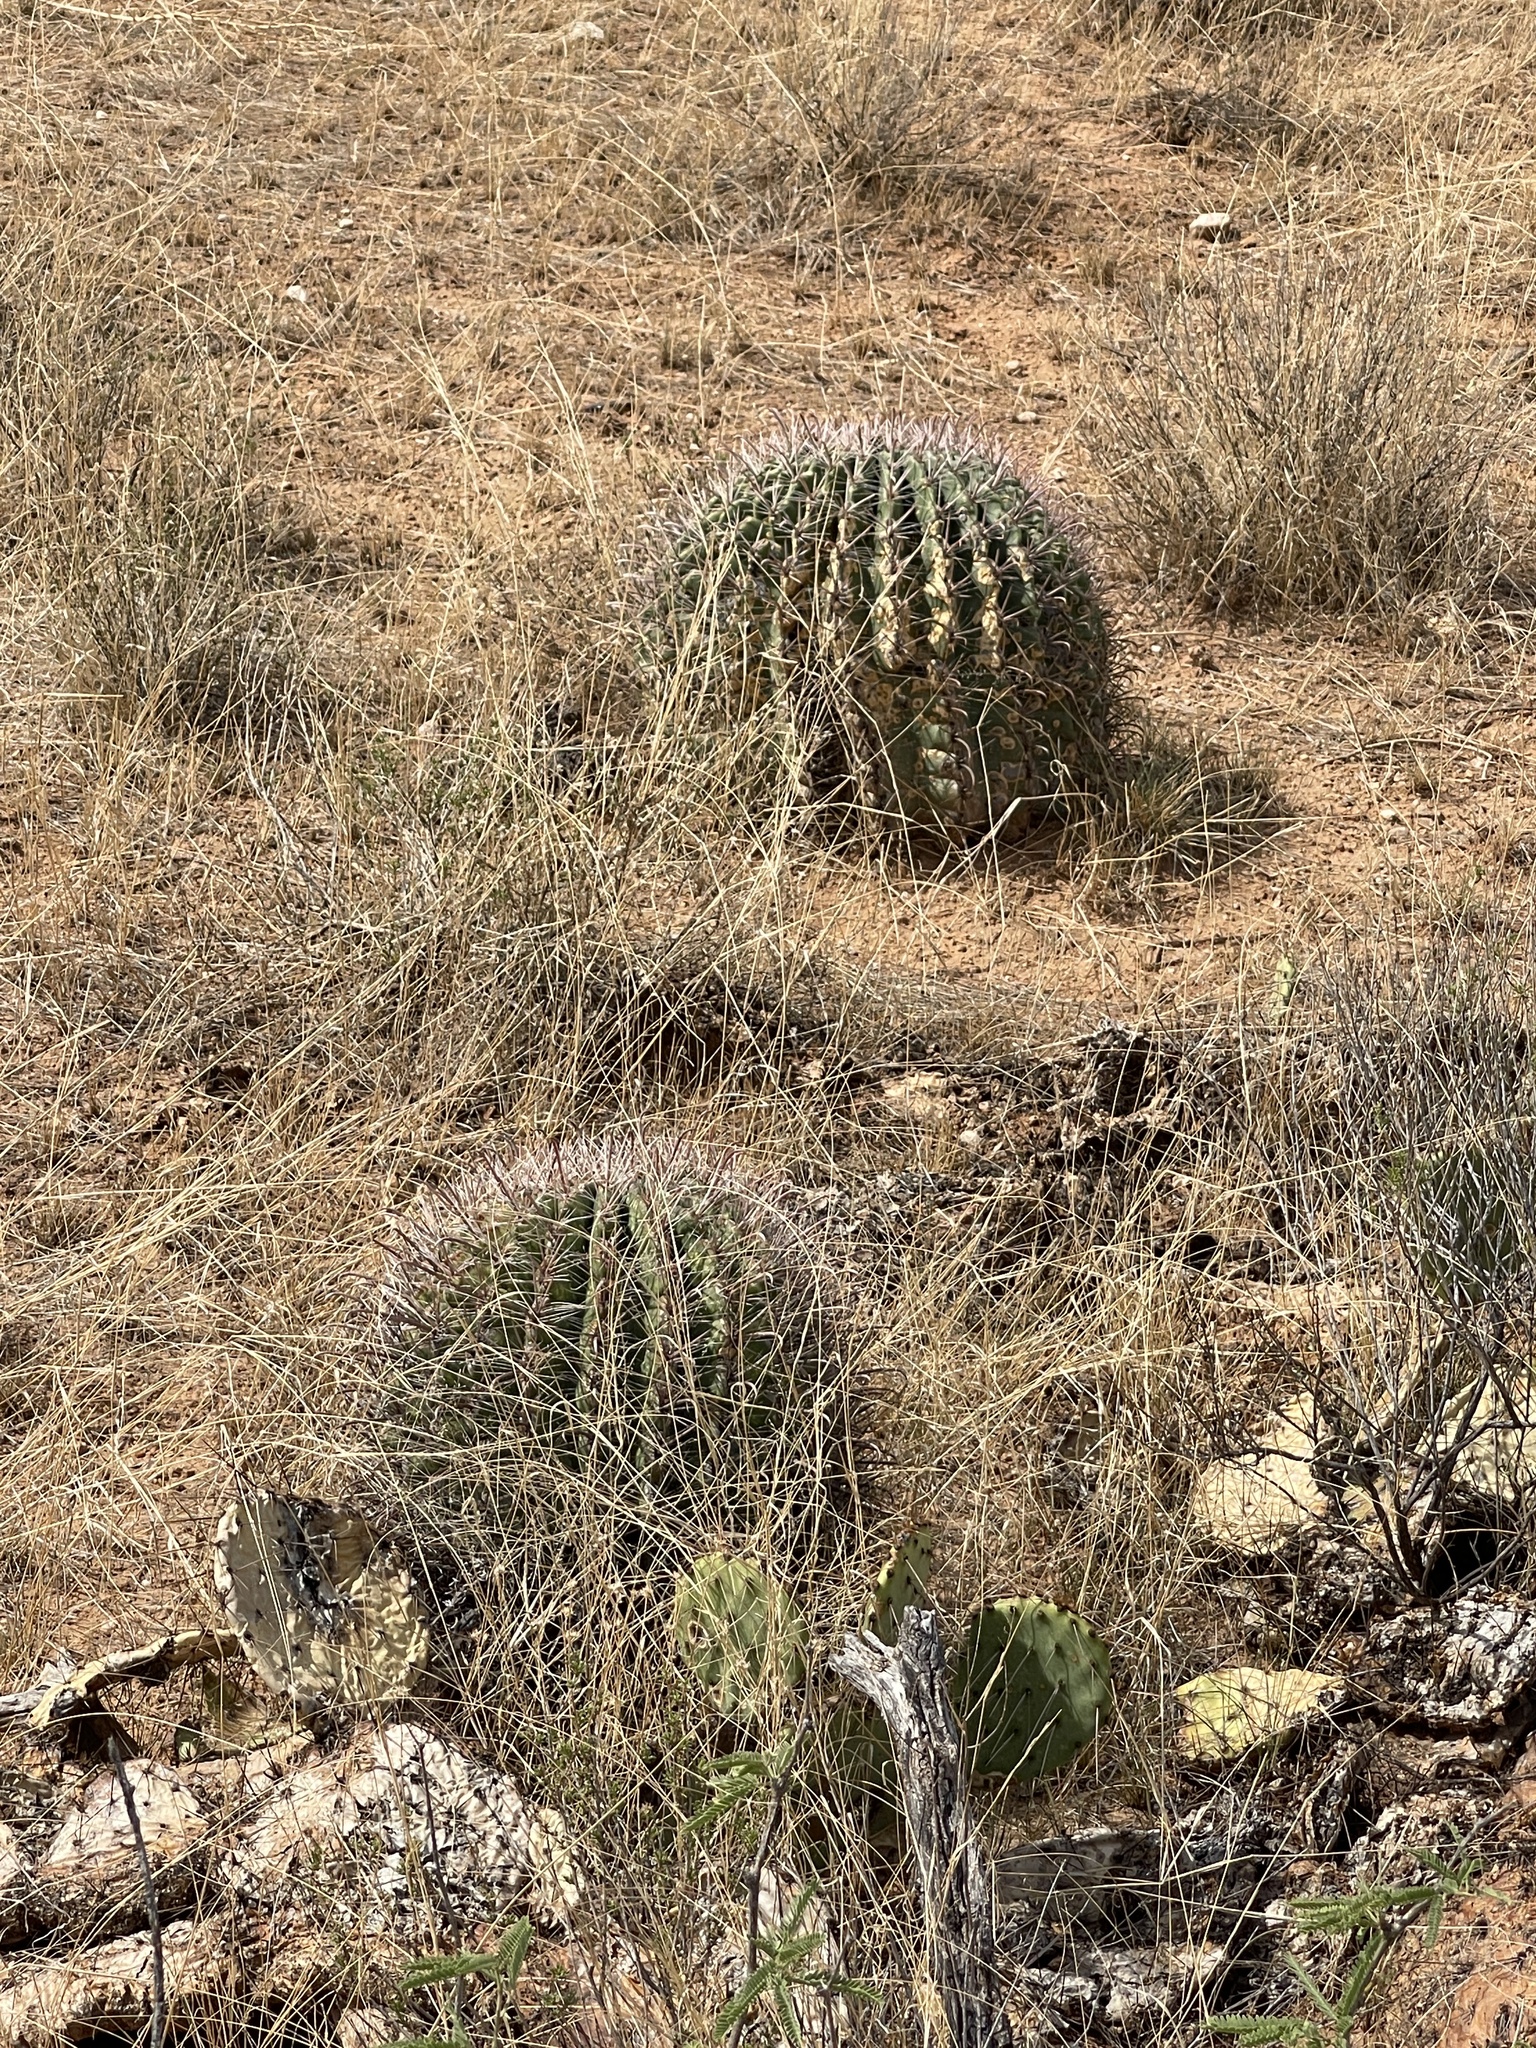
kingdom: Plantae
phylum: Tracheophyta
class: Magnoliopsida
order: Caryophyllales
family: Cactaceae
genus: Ferocactus
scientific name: Ferocactus wislizeni
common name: Candy barrel cactus
